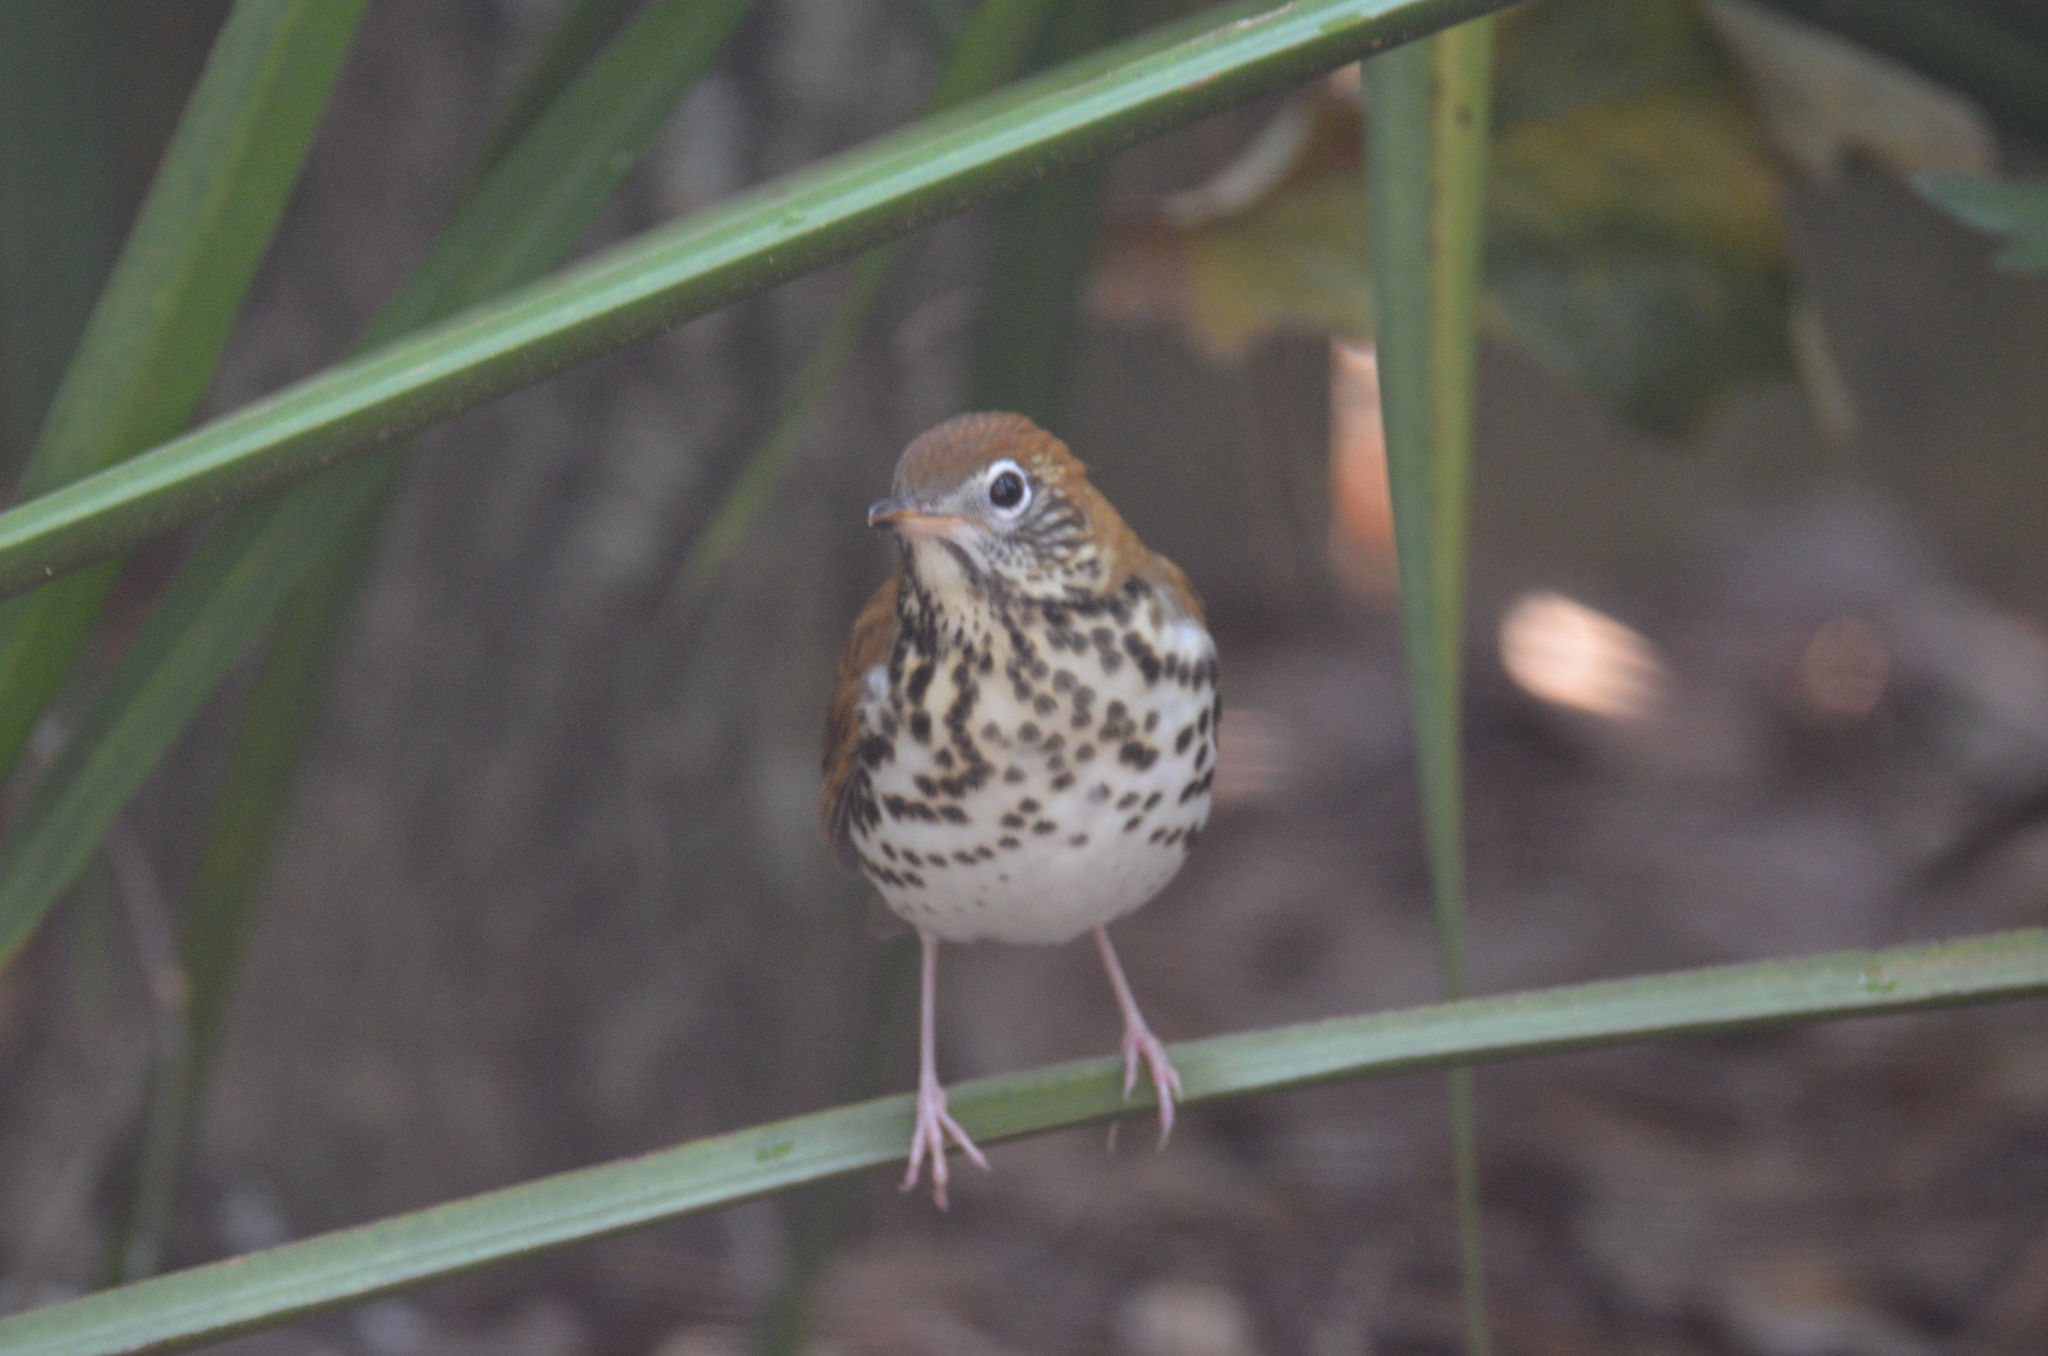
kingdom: Animalia
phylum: Chordata
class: Aves
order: Passeriformes
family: Turdidae
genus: Hylocichla
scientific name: Hylocichla mustelina
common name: Wood thrush
